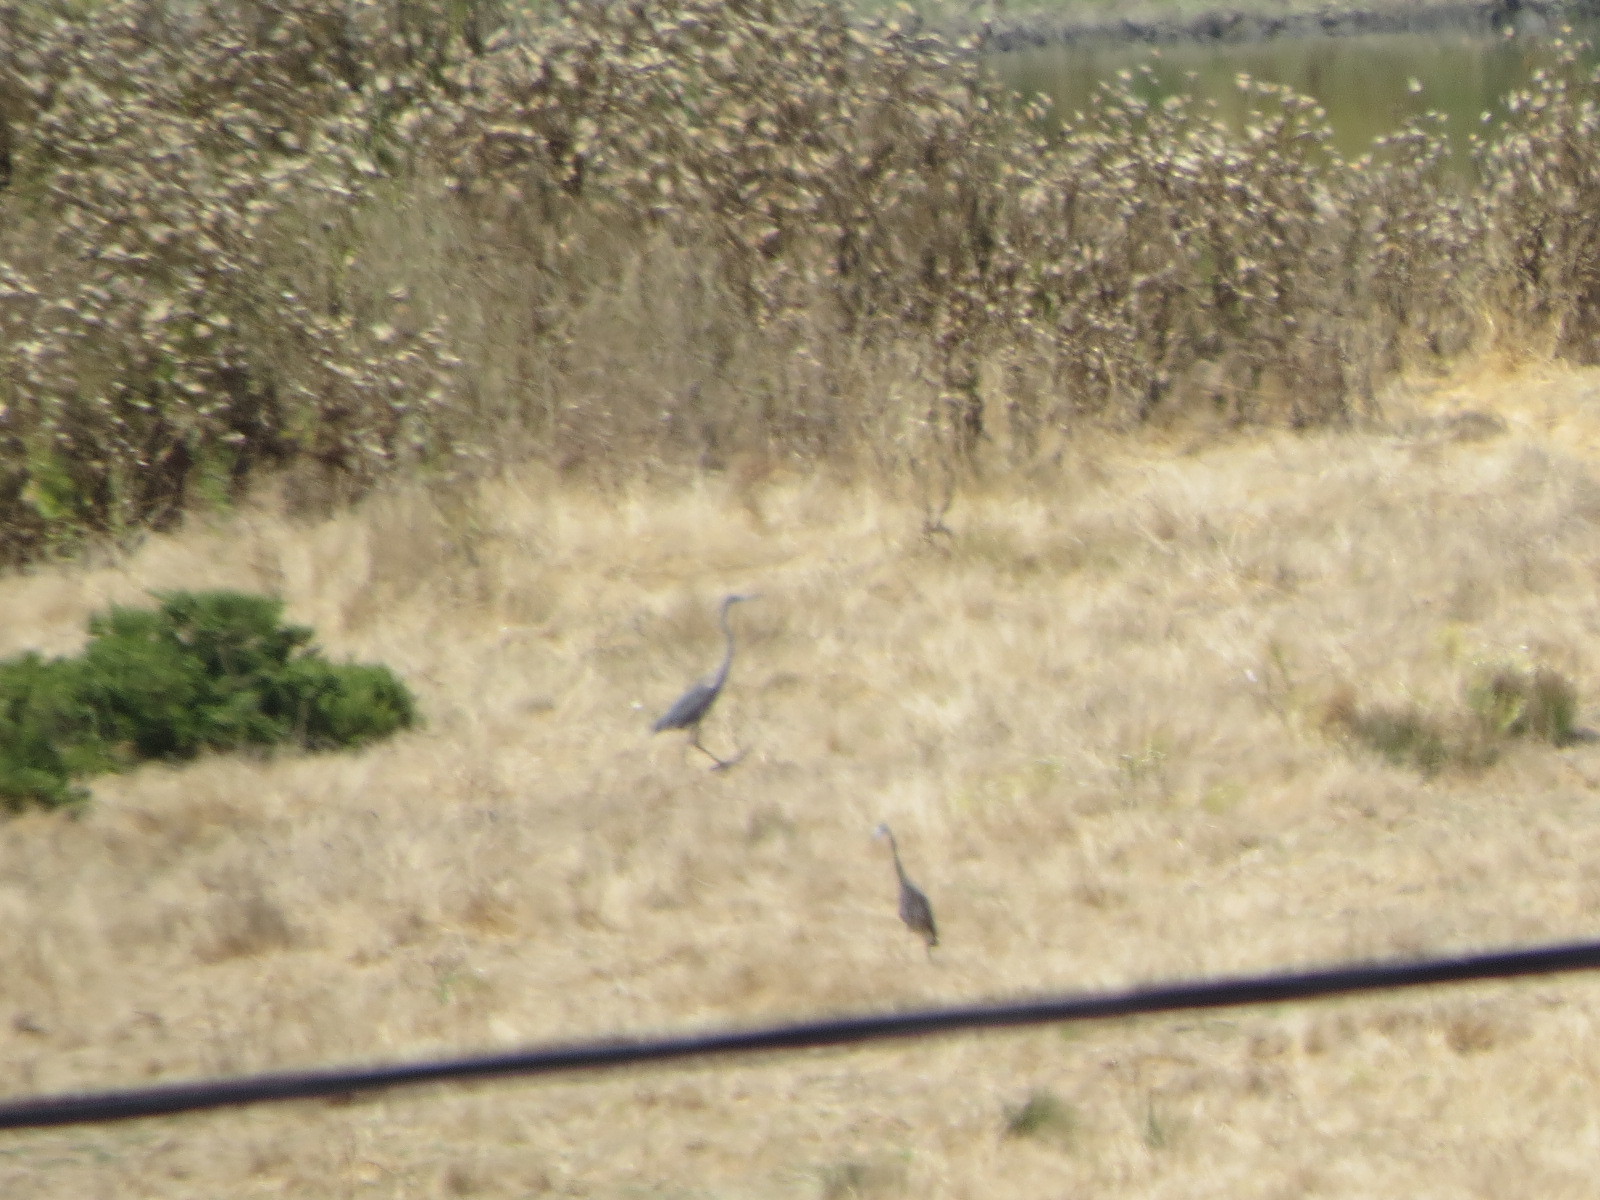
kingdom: Animalia
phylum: Chordata
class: Aves
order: Pelecaniformes
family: Ardeidae
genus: Ardea
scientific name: Ardea herodias
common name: Great blue heron
